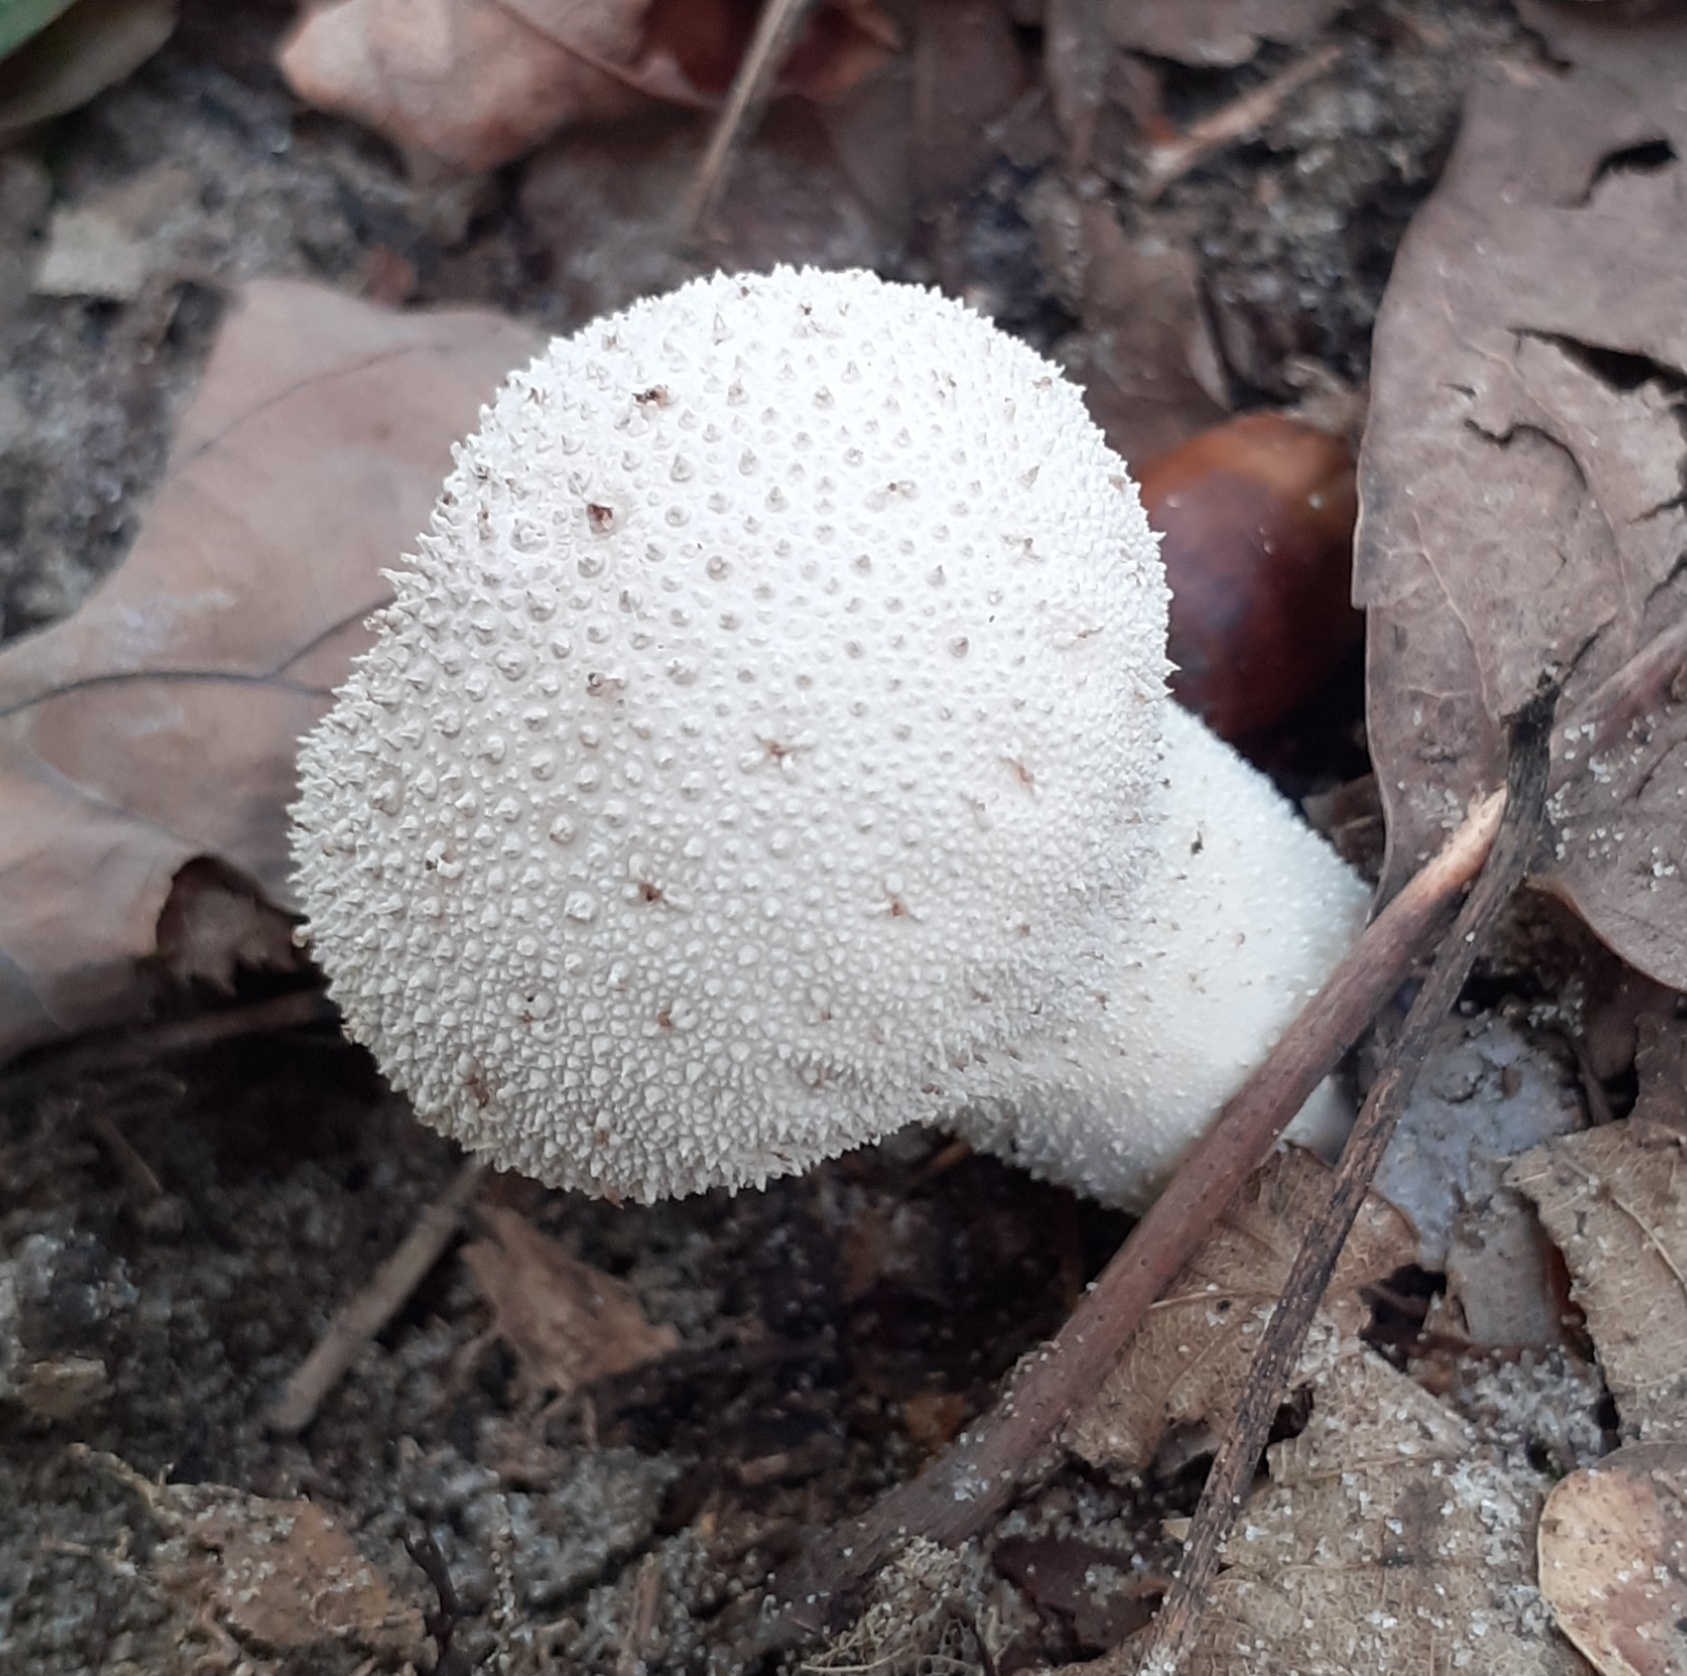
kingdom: Fungi
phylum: Basidiomycota
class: Agaricomycetes
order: Agaricales
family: Lycoperdaceae
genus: Lycoperdon
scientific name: Lycoperdon perlatum
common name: Common puffball
